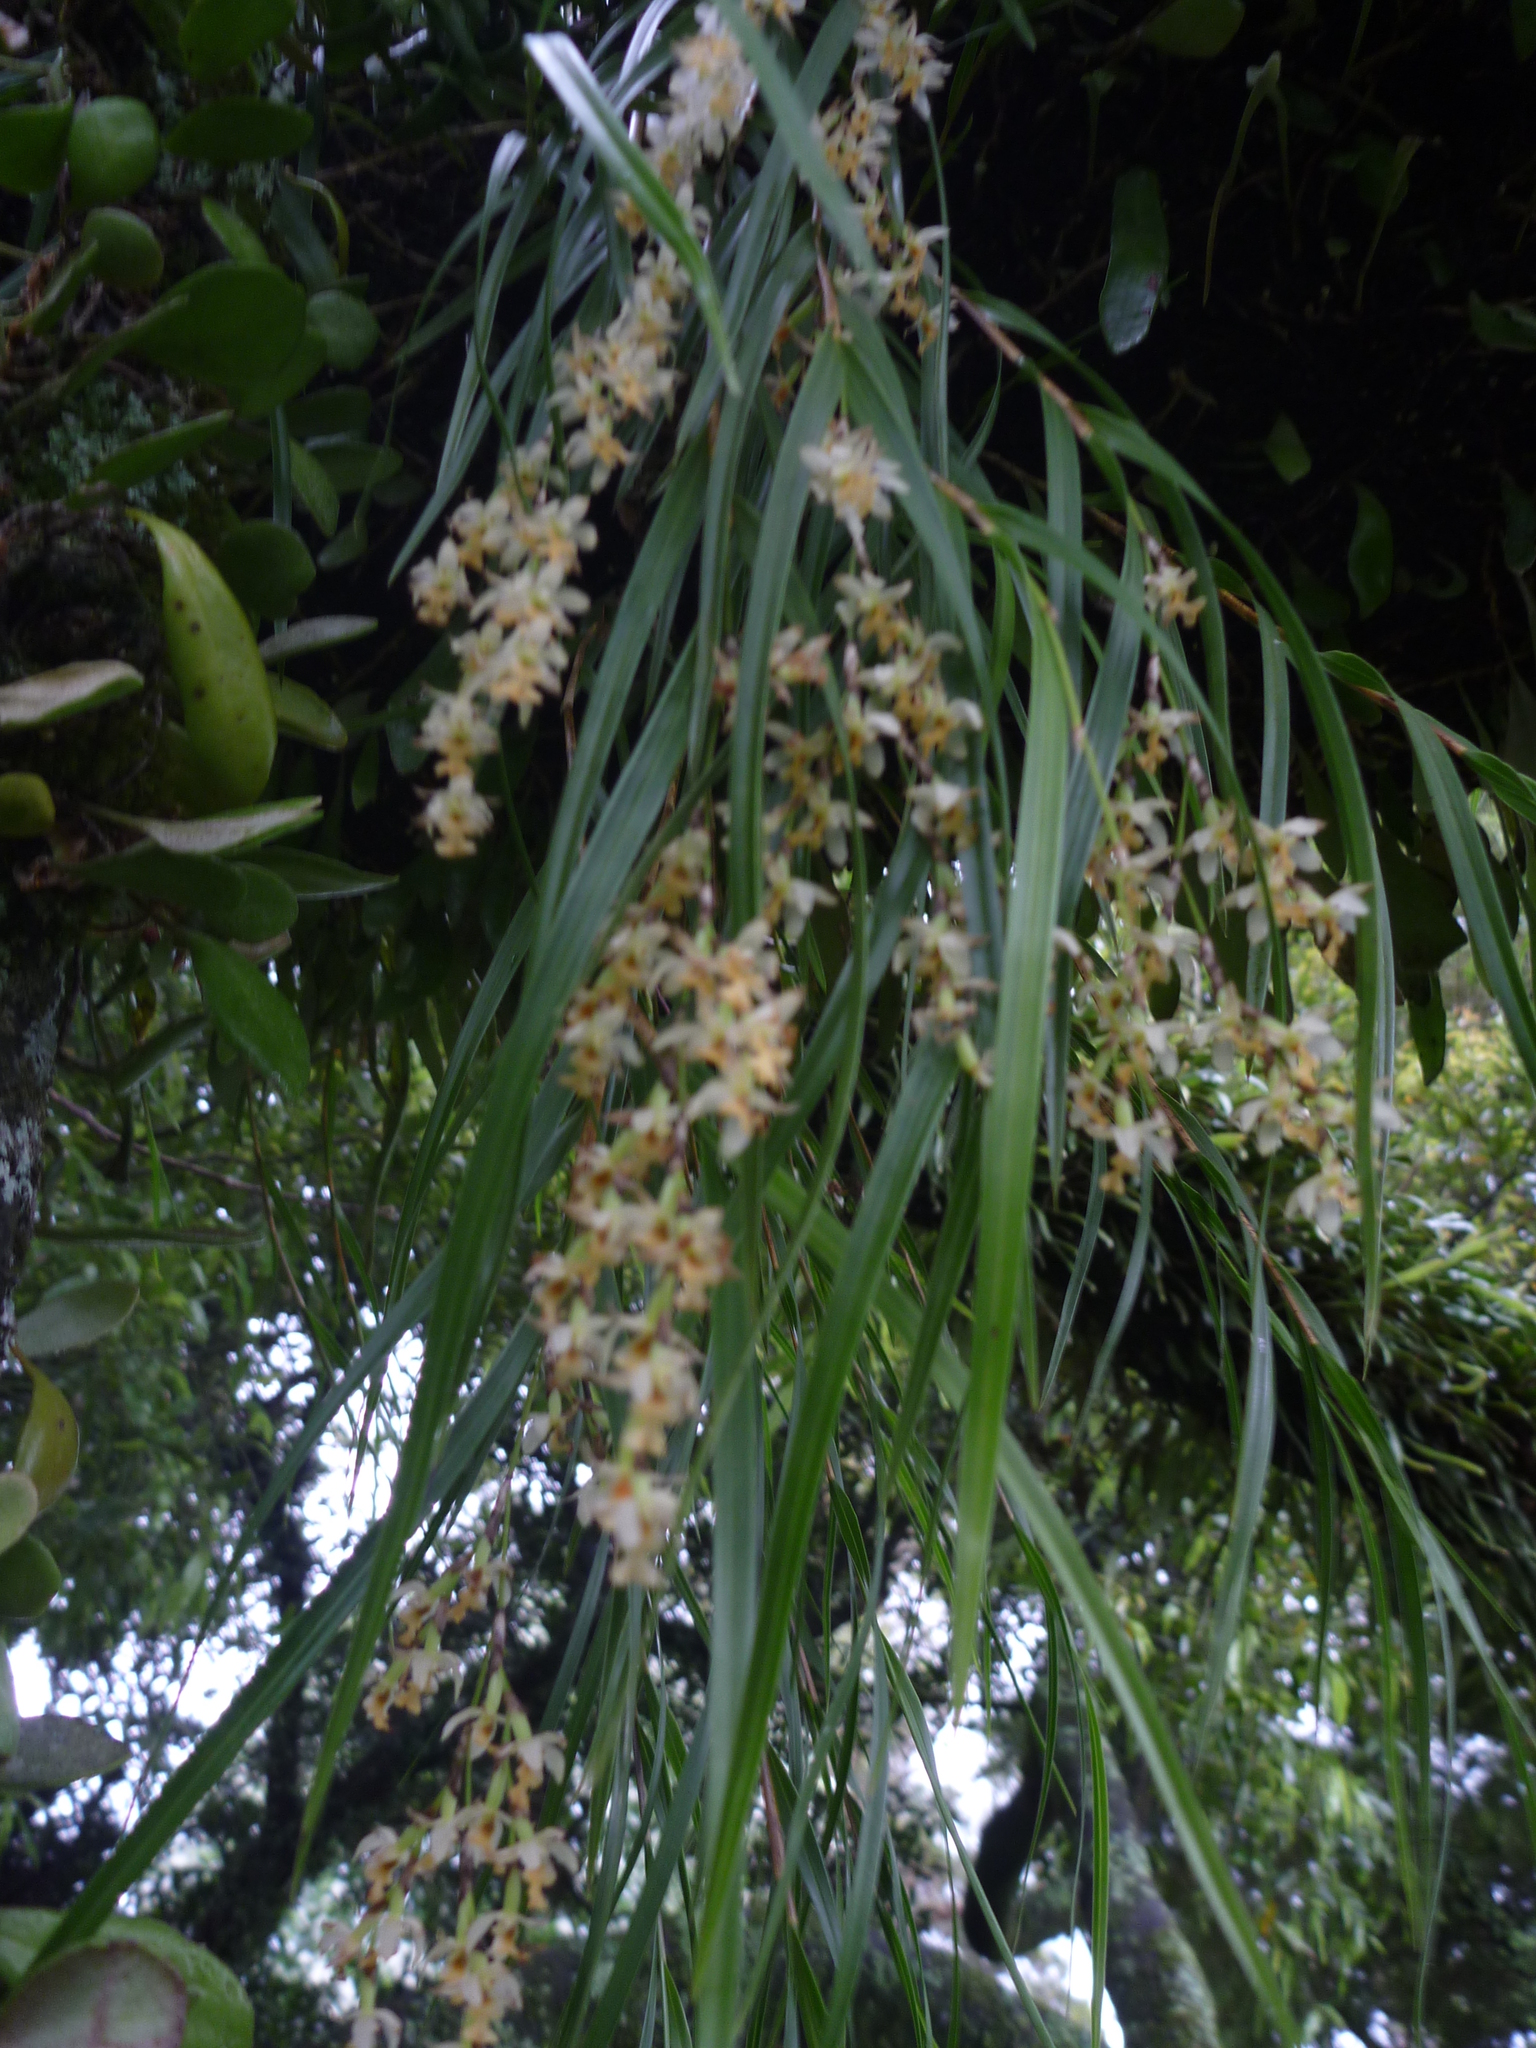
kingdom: Plantae
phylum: Tracheophyta
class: Liliopsida
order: Asparagales
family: Orchidaceae
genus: Earina
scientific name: Earina mucronata
